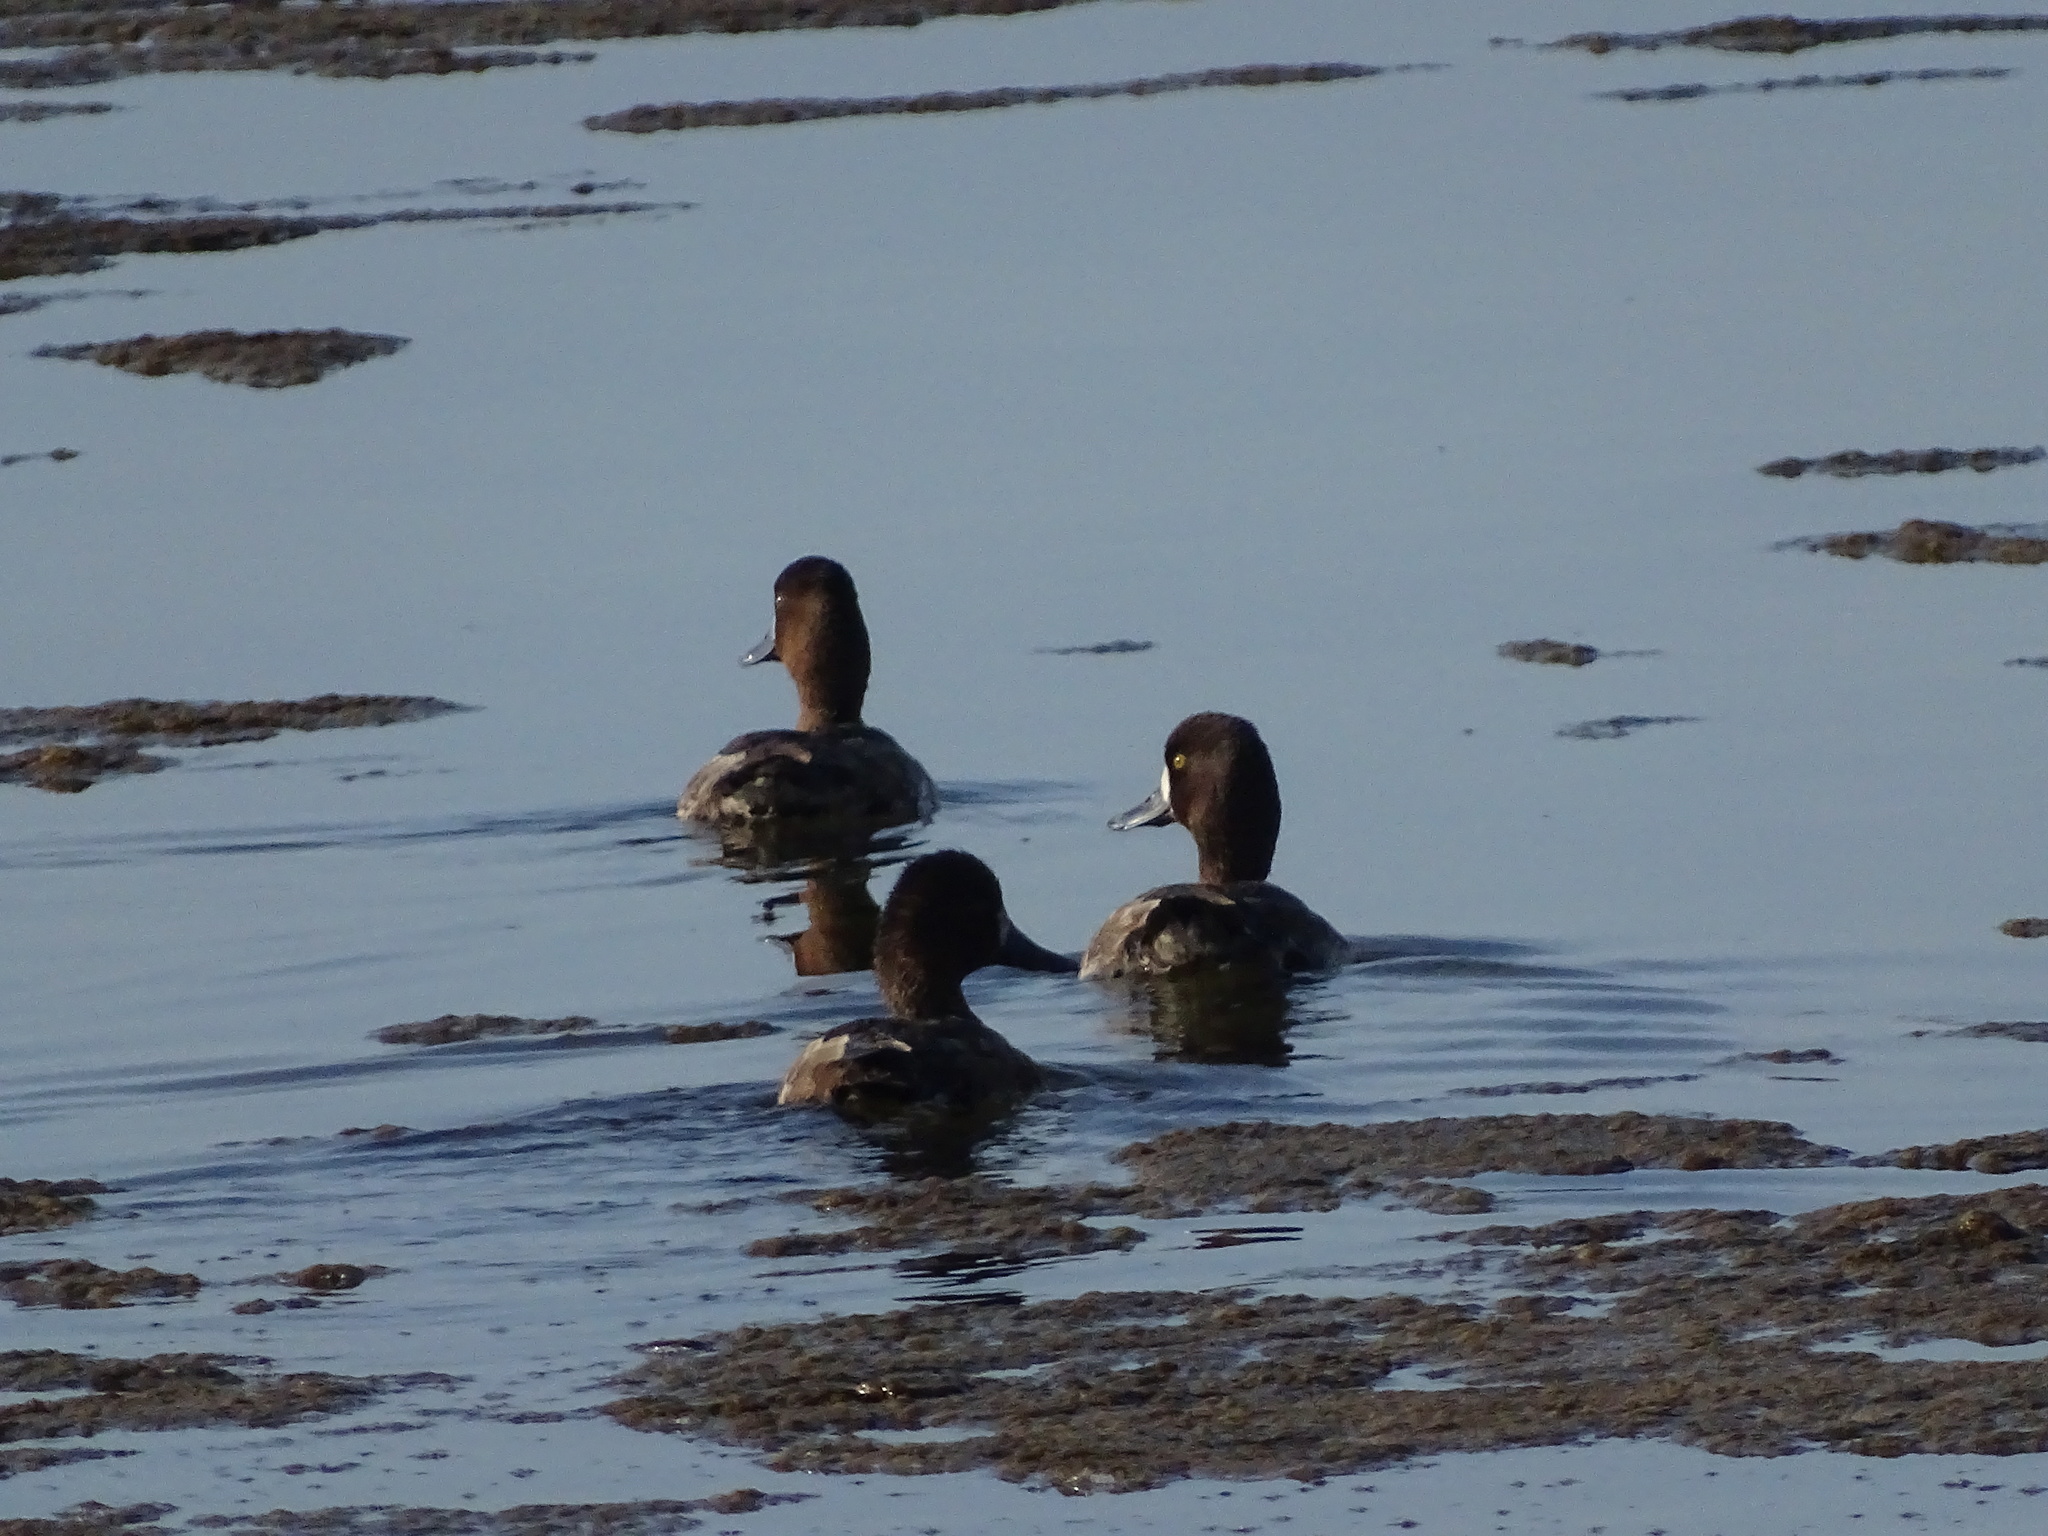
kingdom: Animalia
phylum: Chordata
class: Aves
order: Anseriformes
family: Anatidae
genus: Aythya
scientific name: Aythya affinis
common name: Lesser scaup
